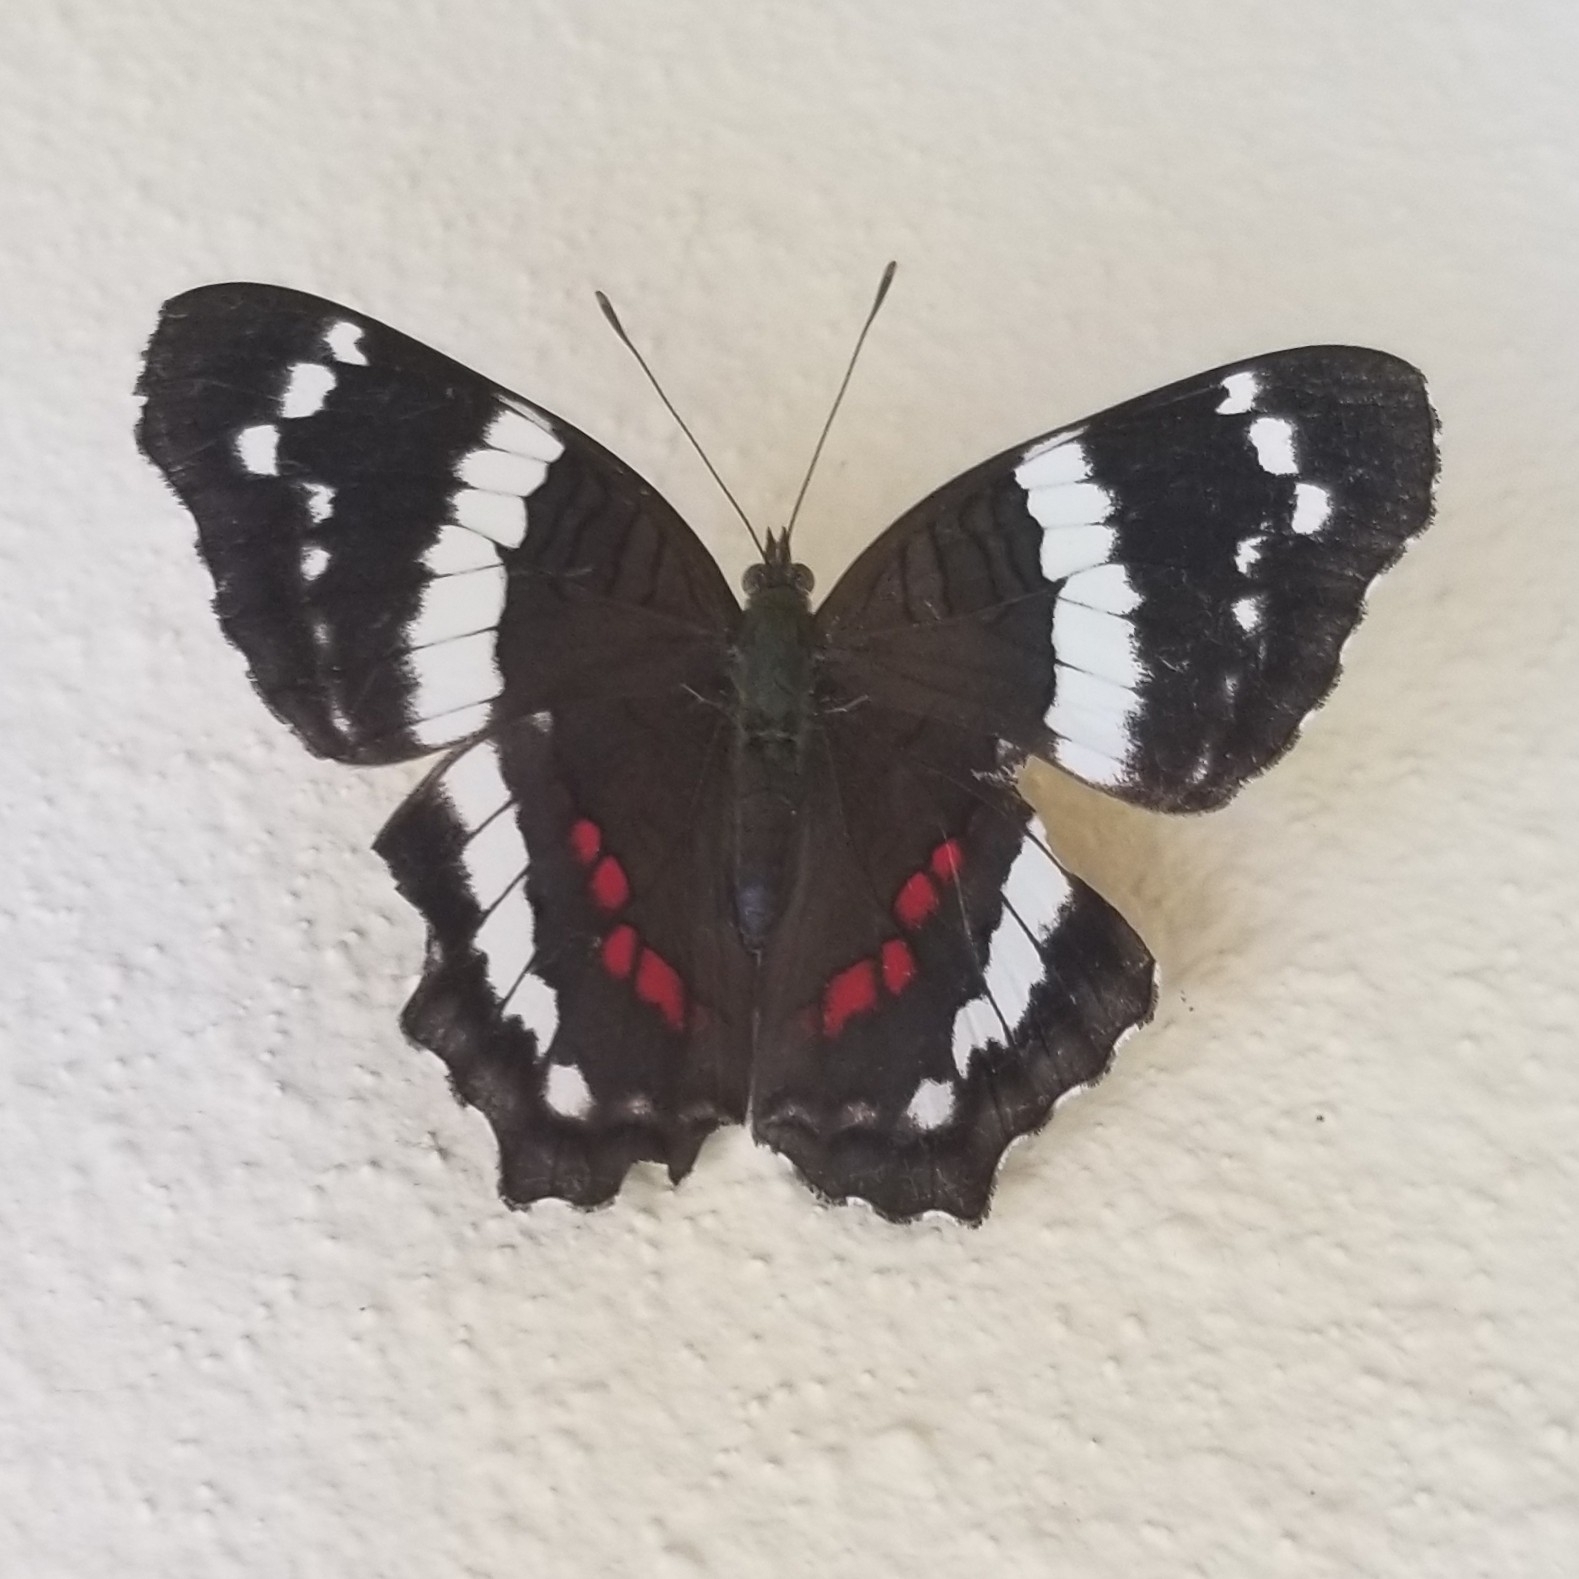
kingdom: Animalia
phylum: Arthropoda
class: Insecta
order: Lepidoptera
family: Nymphalidae
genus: Anartia
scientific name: Anartia fatima
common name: Banded peacock
